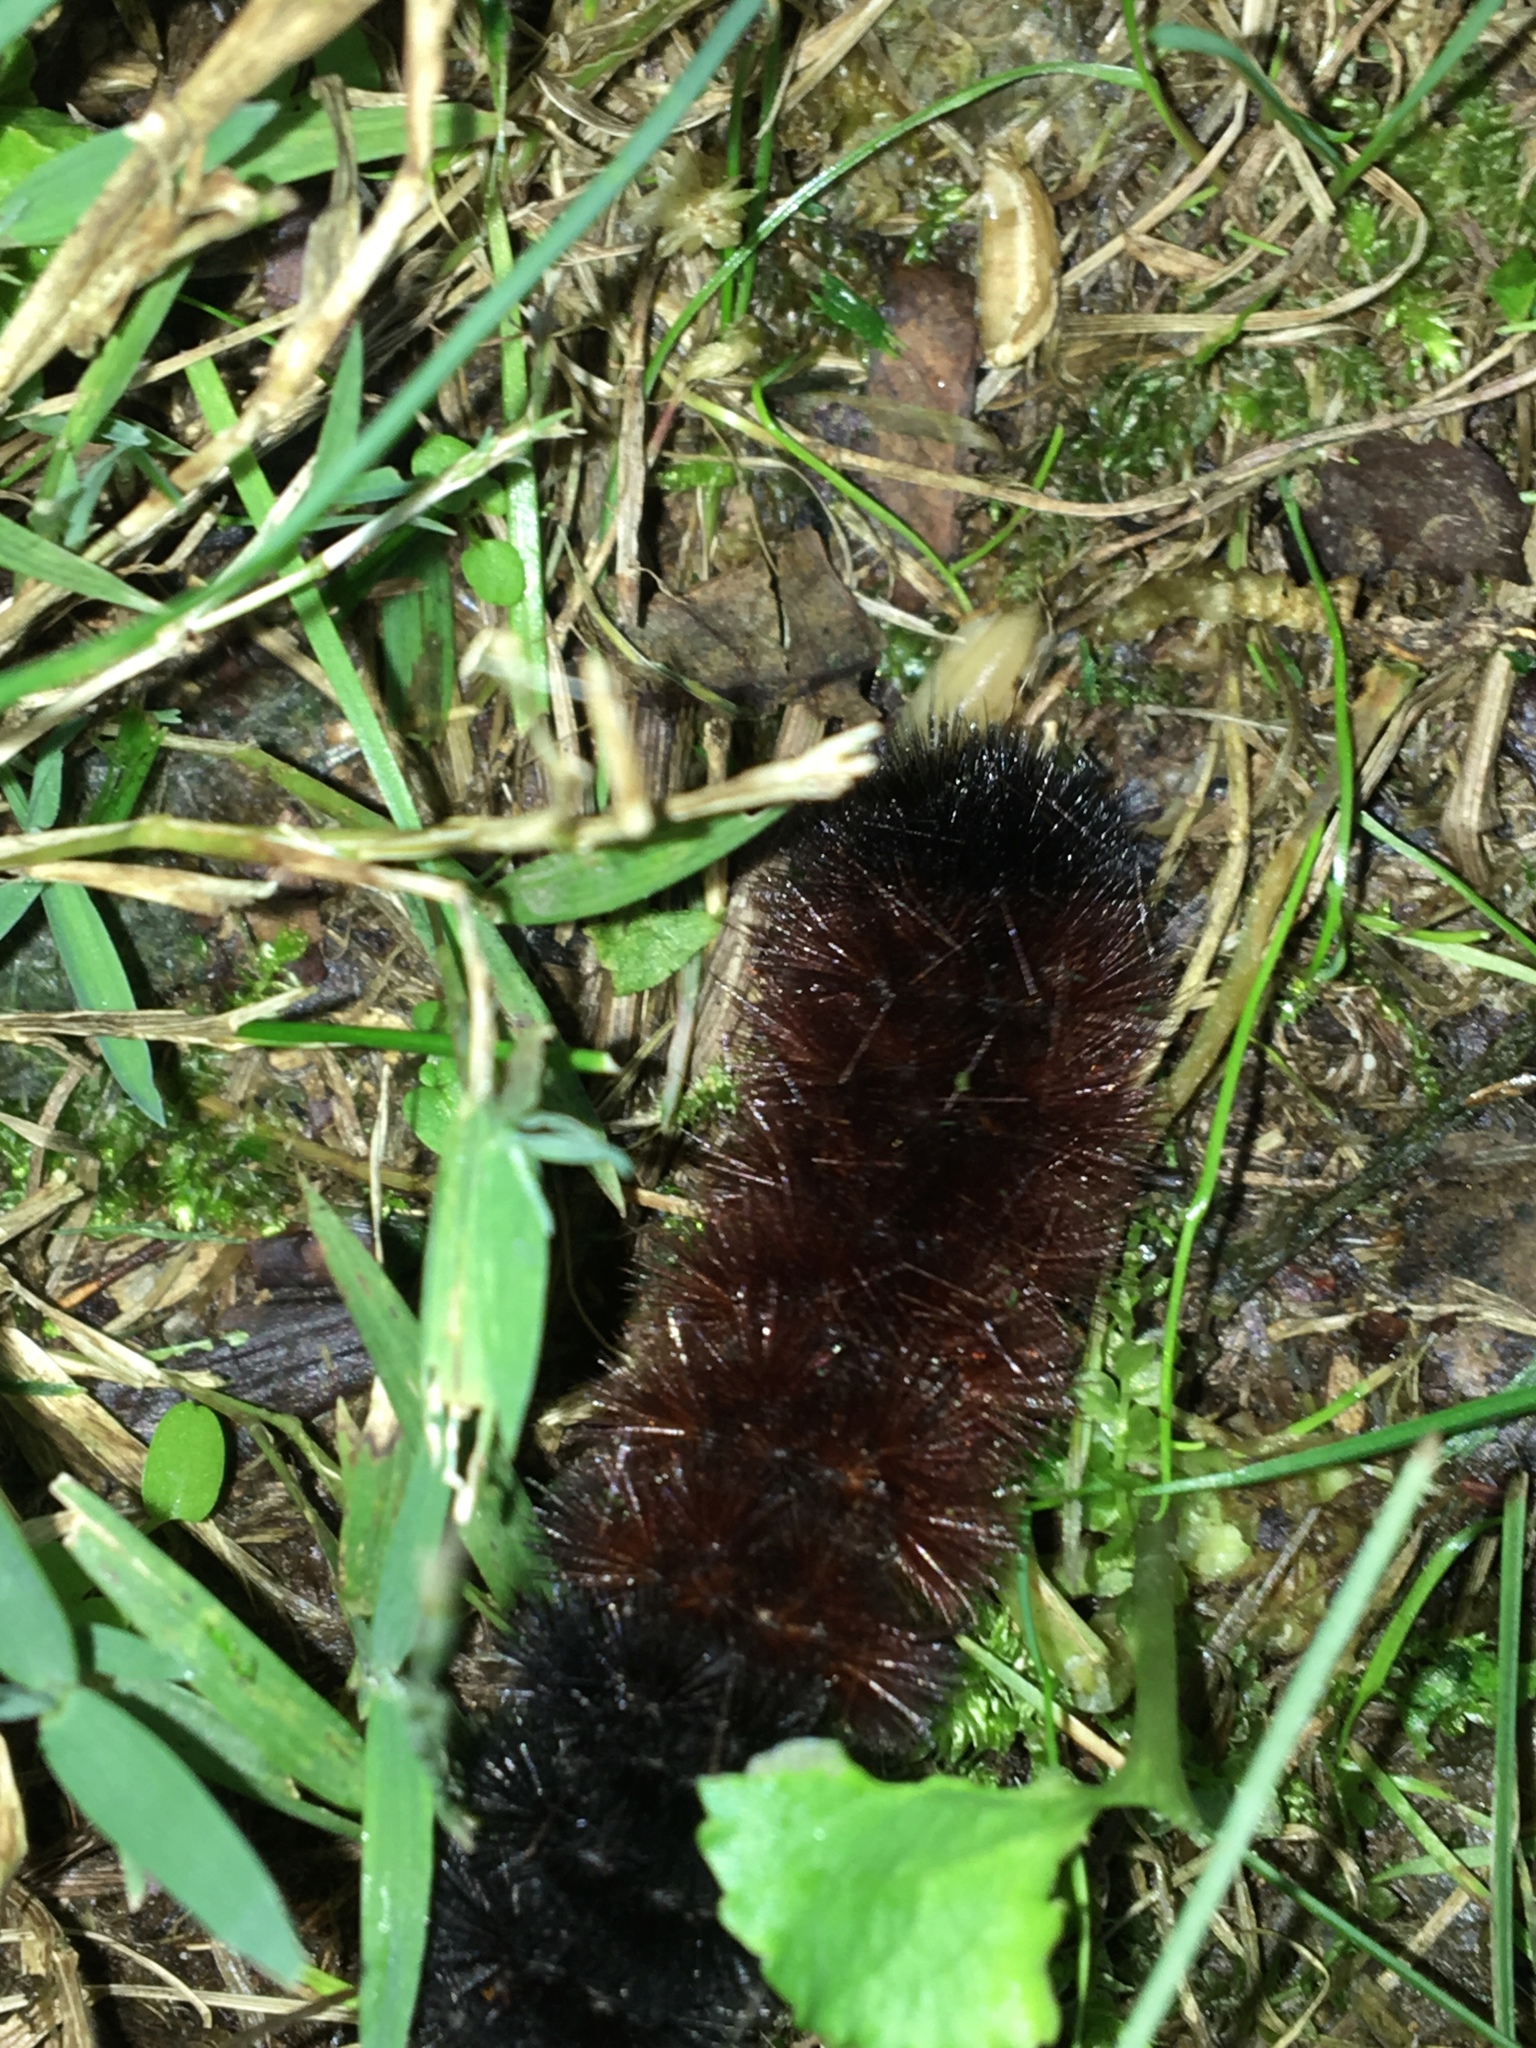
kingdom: Animalia
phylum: Arthropoda
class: Insecta
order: Lepidoptera
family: Erebidae
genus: Pyrrharctia
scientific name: Pyrrharctia isabella
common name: Isabella tiger moth
